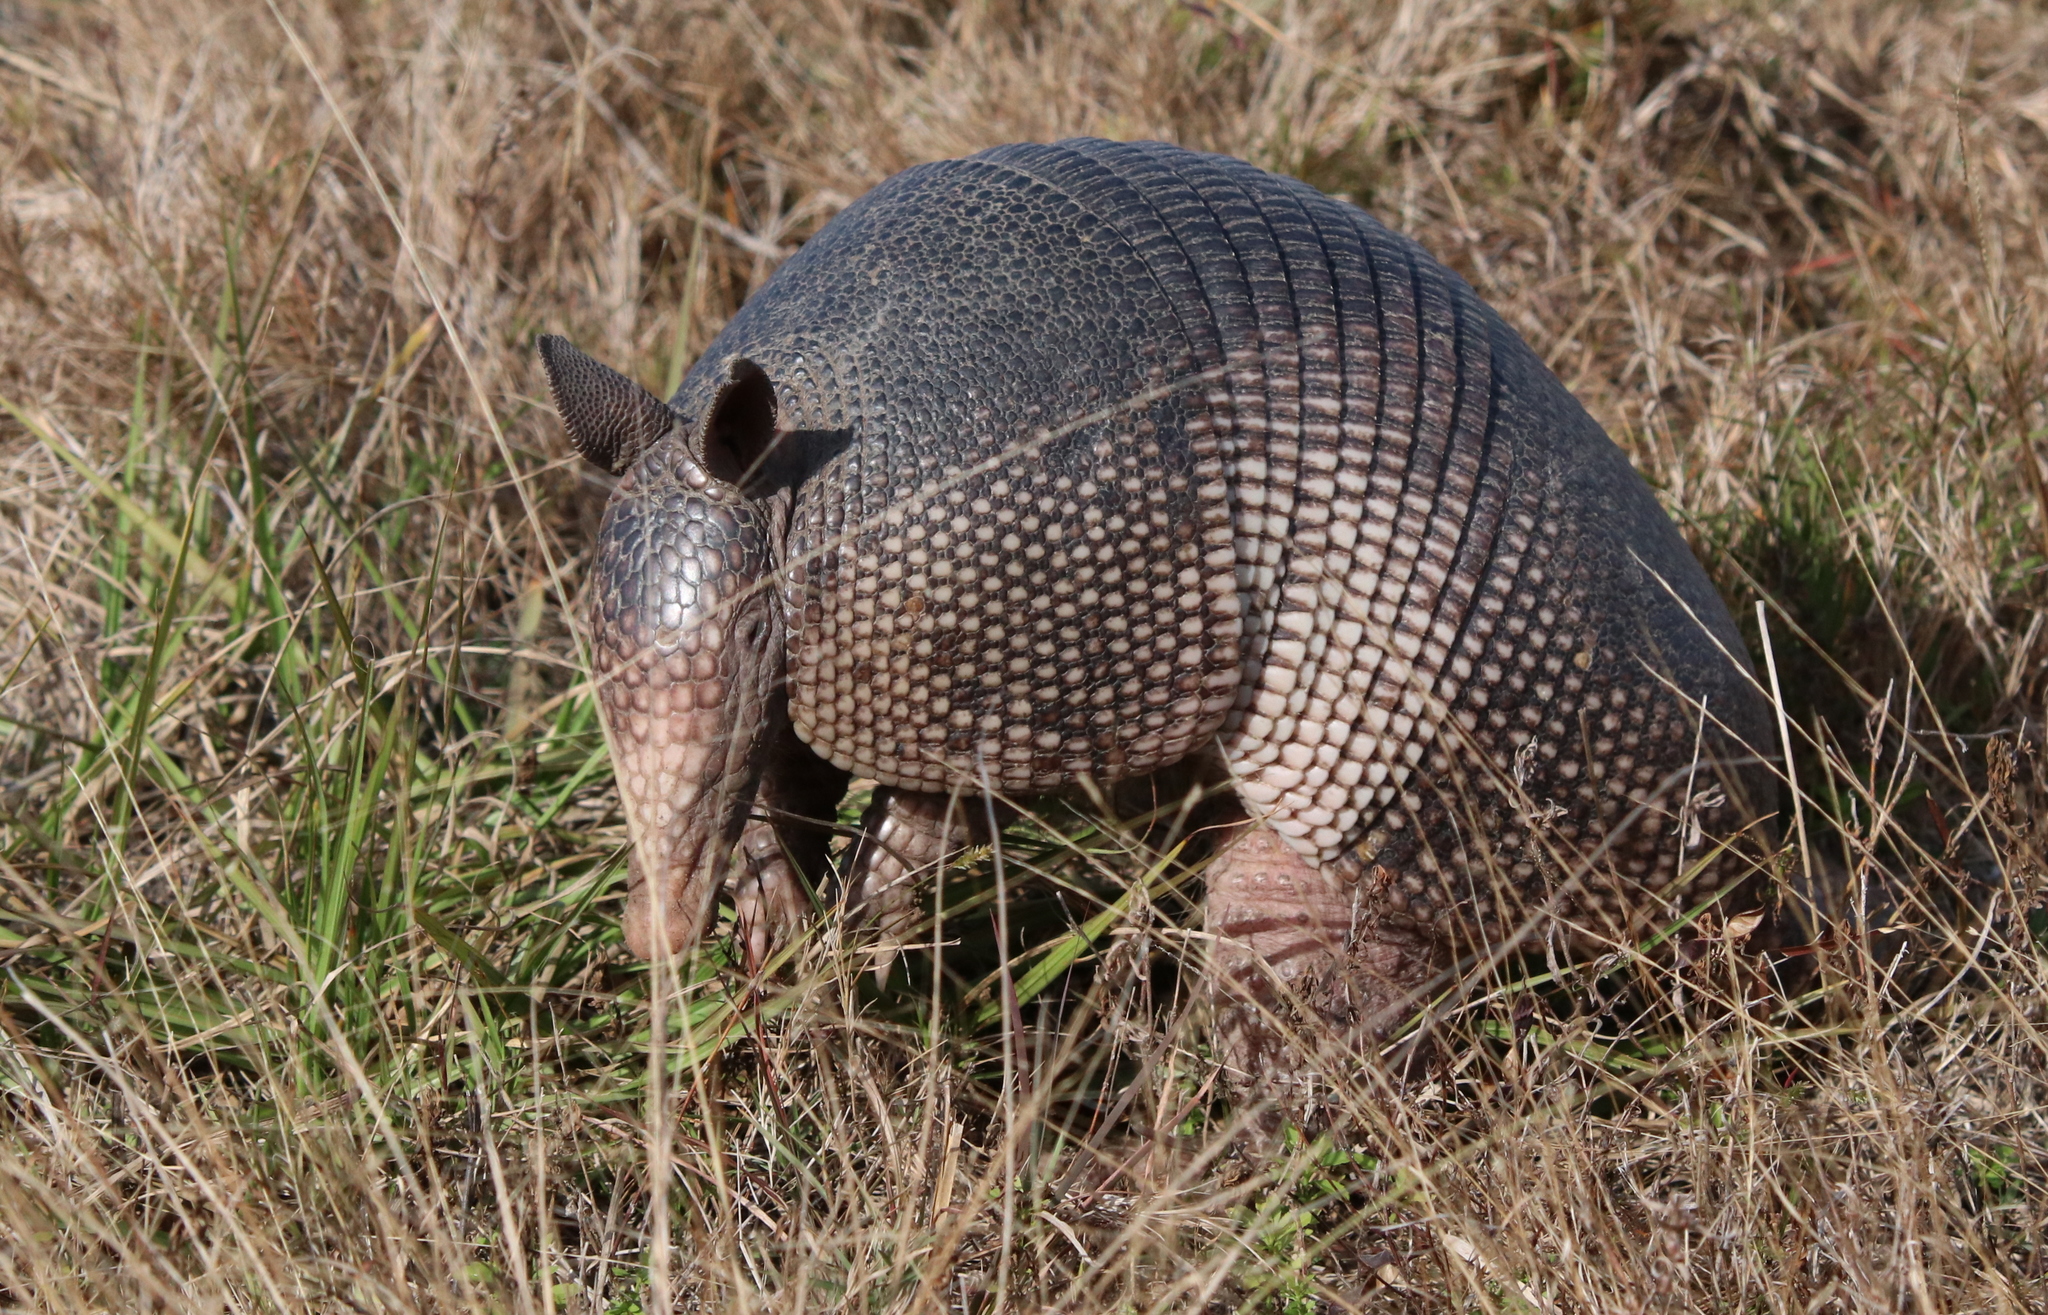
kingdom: Animalia
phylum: Chordata
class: Mammalia
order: Cingulata
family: Dasypodidae
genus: Dasypus
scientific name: Dasypus novemcinctus
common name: Nine-banded armadillo
